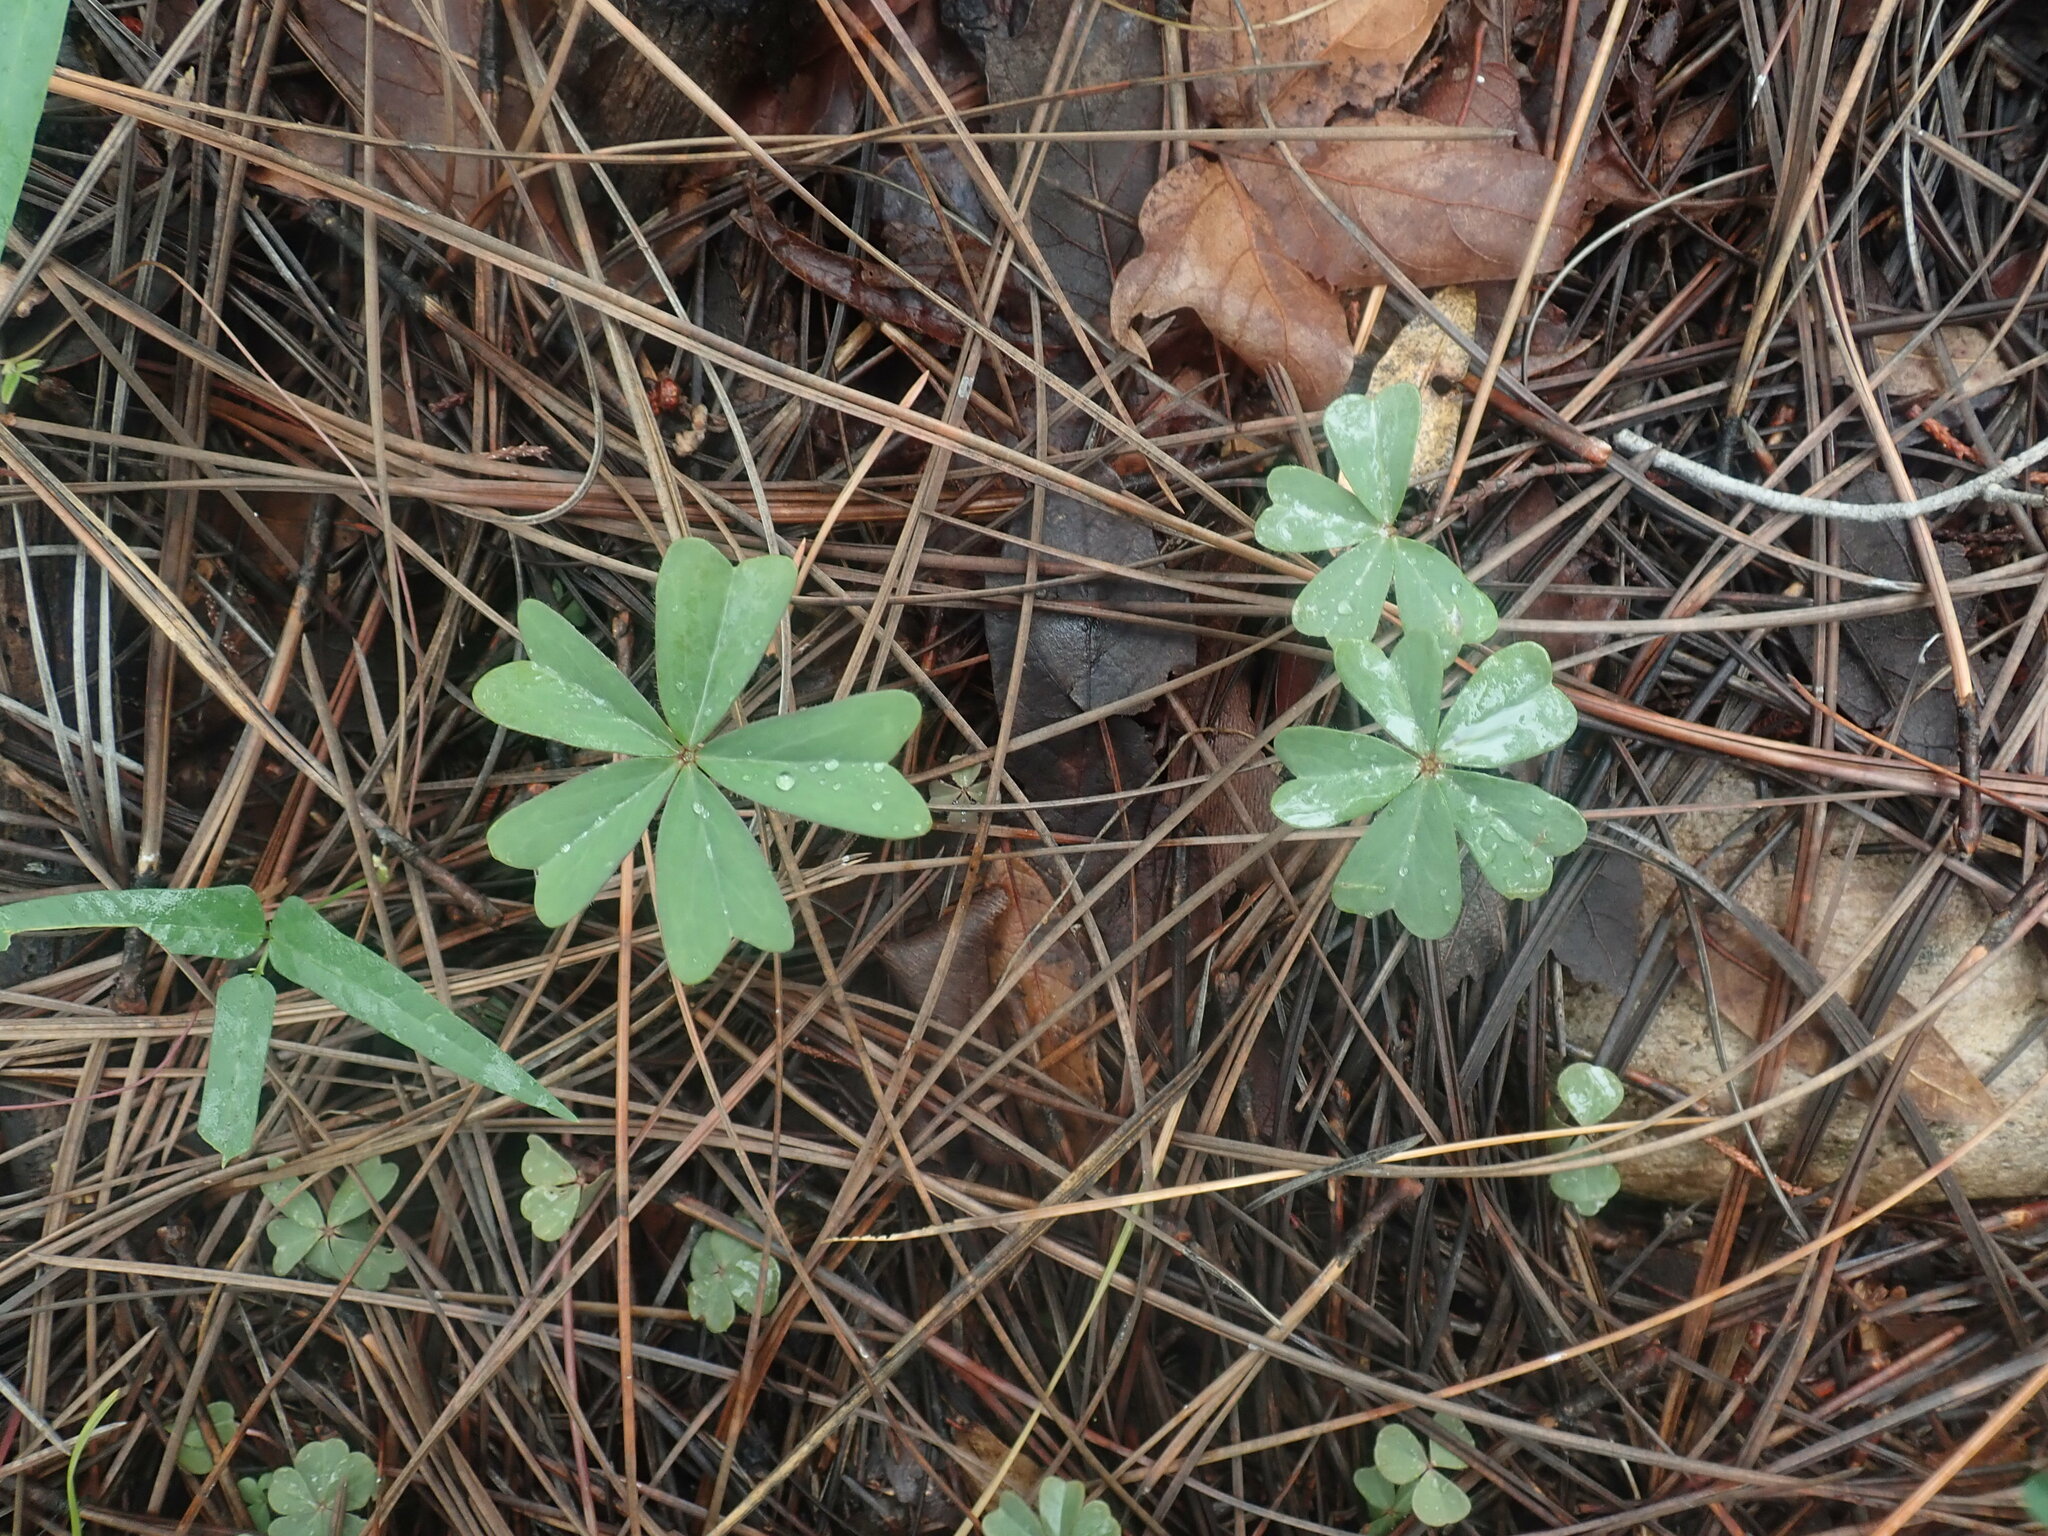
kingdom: Plantae
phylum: Tracheophyta
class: Magnoliopsida
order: Oxalidales
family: Oxalidaceae
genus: Oxalis
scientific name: Oxalis decaphylla
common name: Ten-leaved pink-sorrel
